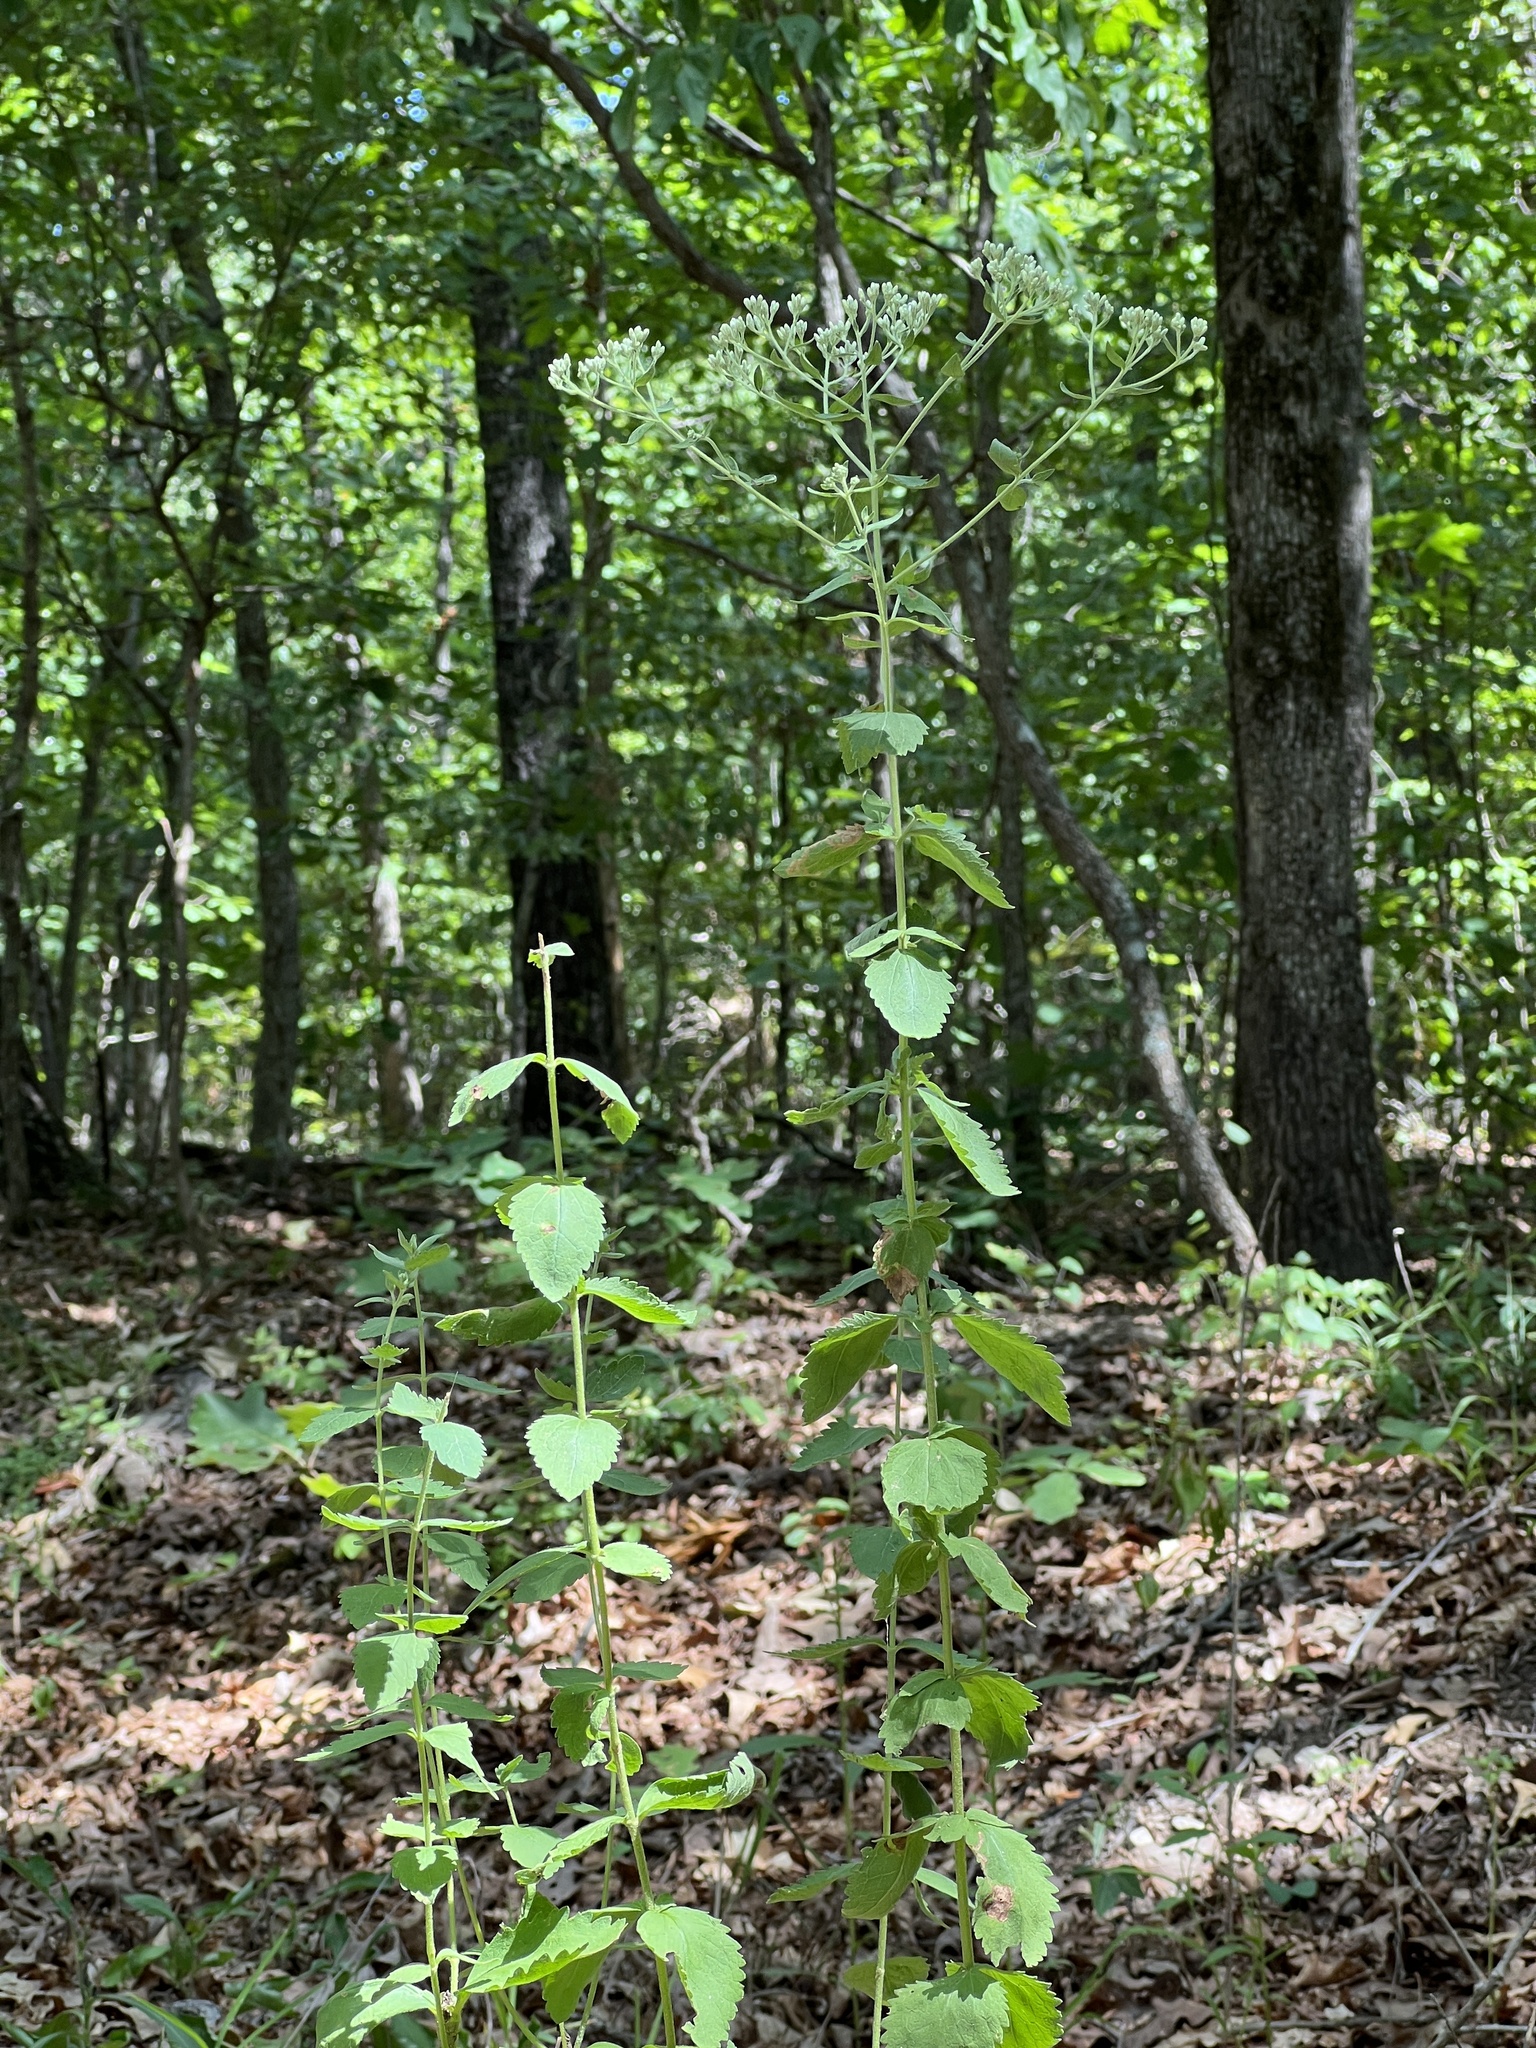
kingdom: Plantae
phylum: Tracheophyta
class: Magnoliopsida
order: Asterales
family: Asteraceae
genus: Eupatorium
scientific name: Eupatorium rotundifolium
